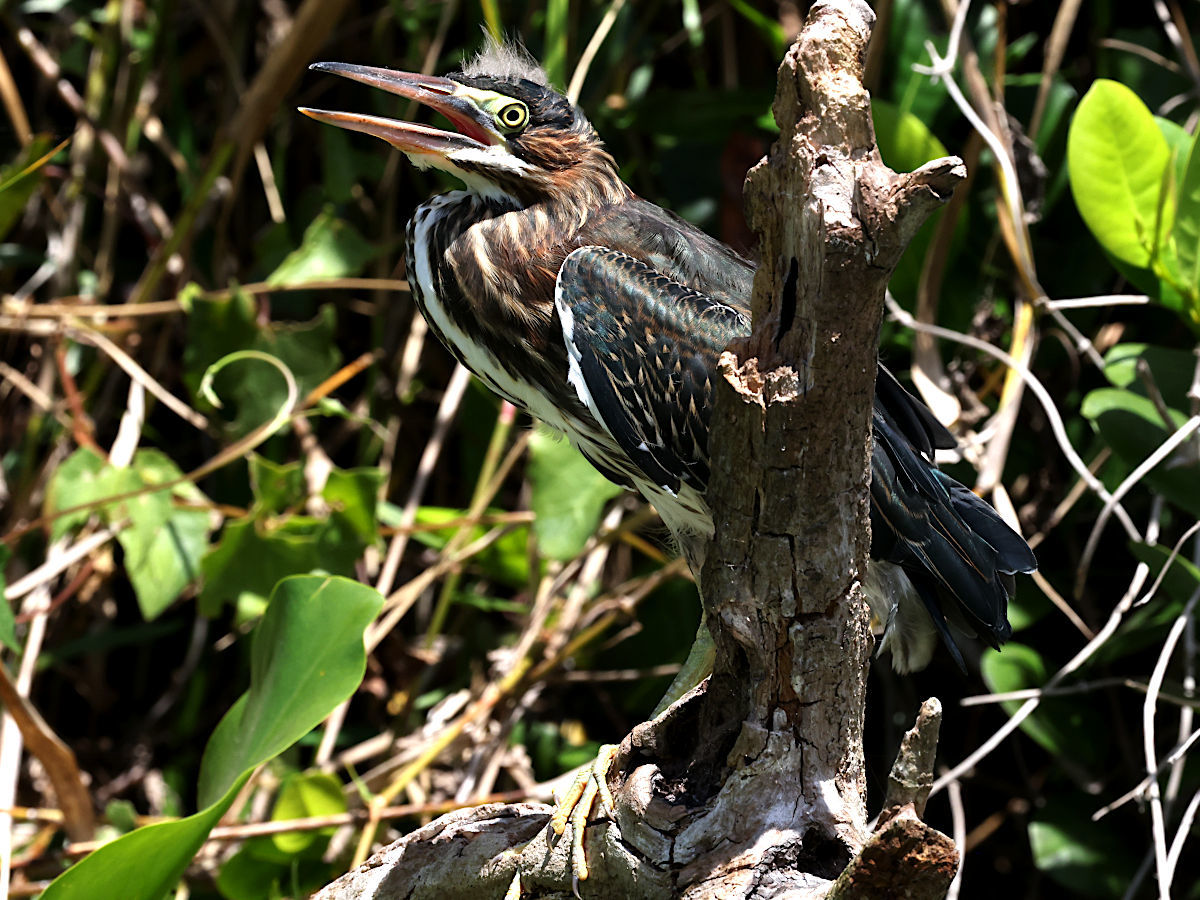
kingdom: Animalia
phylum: Chordata
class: Aves
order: Pelecaniformes
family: Ardeidae
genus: Butorides
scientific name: Butorides virescens
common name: Green heron
